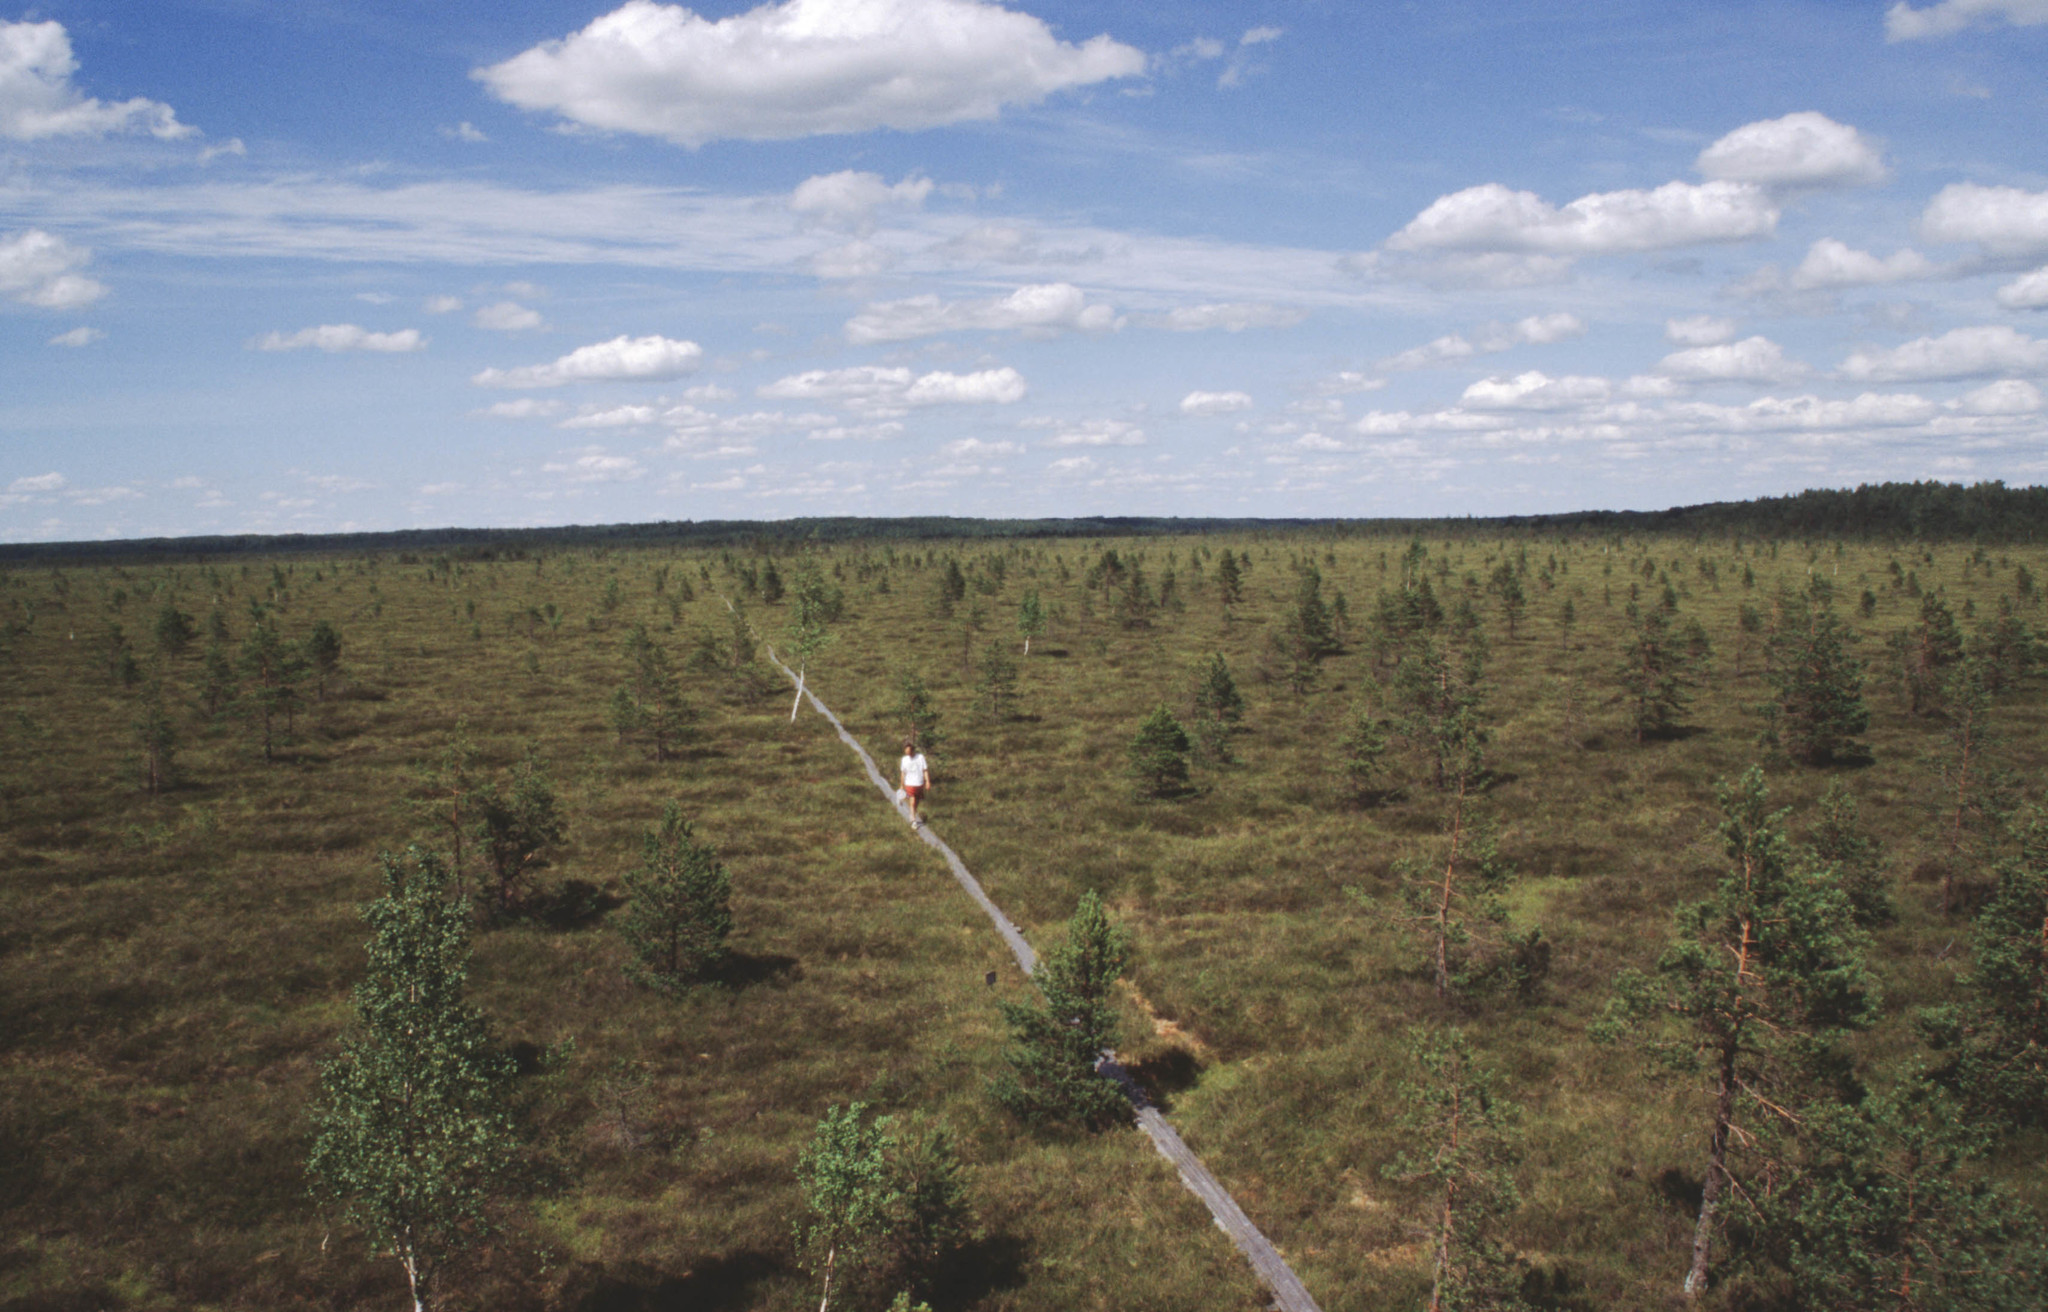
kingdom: Plantae
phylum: Tracheophyta
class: Pinopsida
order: Pinales
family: Pinaceae
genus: Pinus
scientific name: Pinus sylvestris
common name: Scots pine
